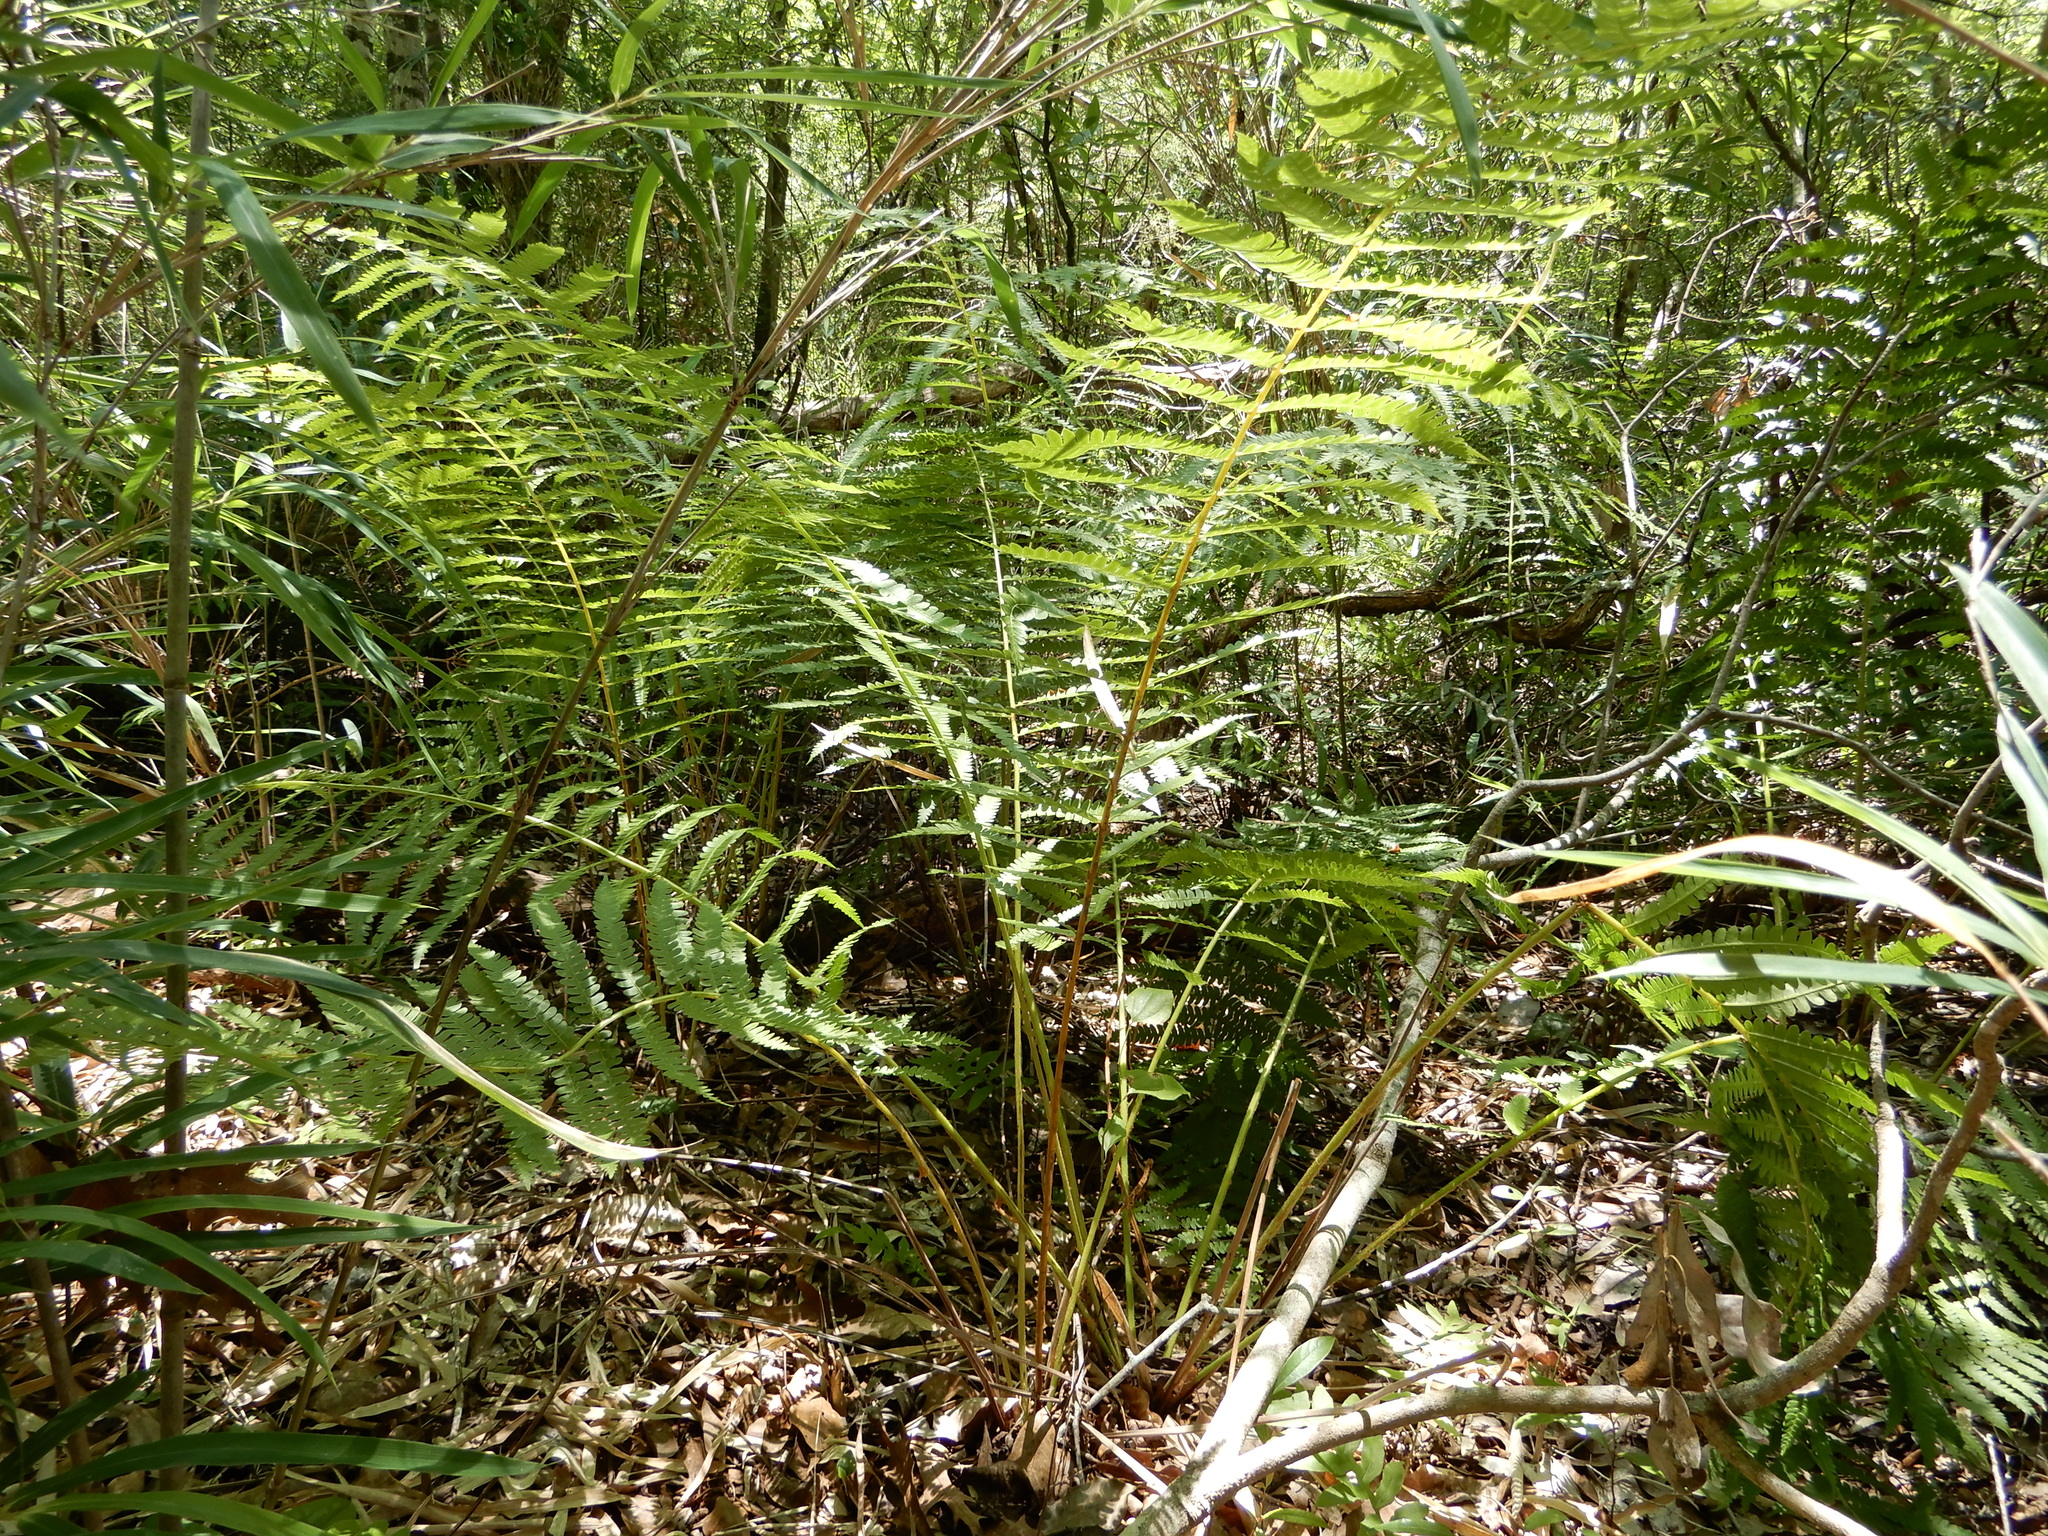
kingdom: Plantae
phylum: Tracheophyta
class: Polypodiopsida
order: Osmundales
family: Osmundaceae
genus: Osmundastrum
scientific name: Osmundastrum cinnamomeum
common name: Cinnamon fern
